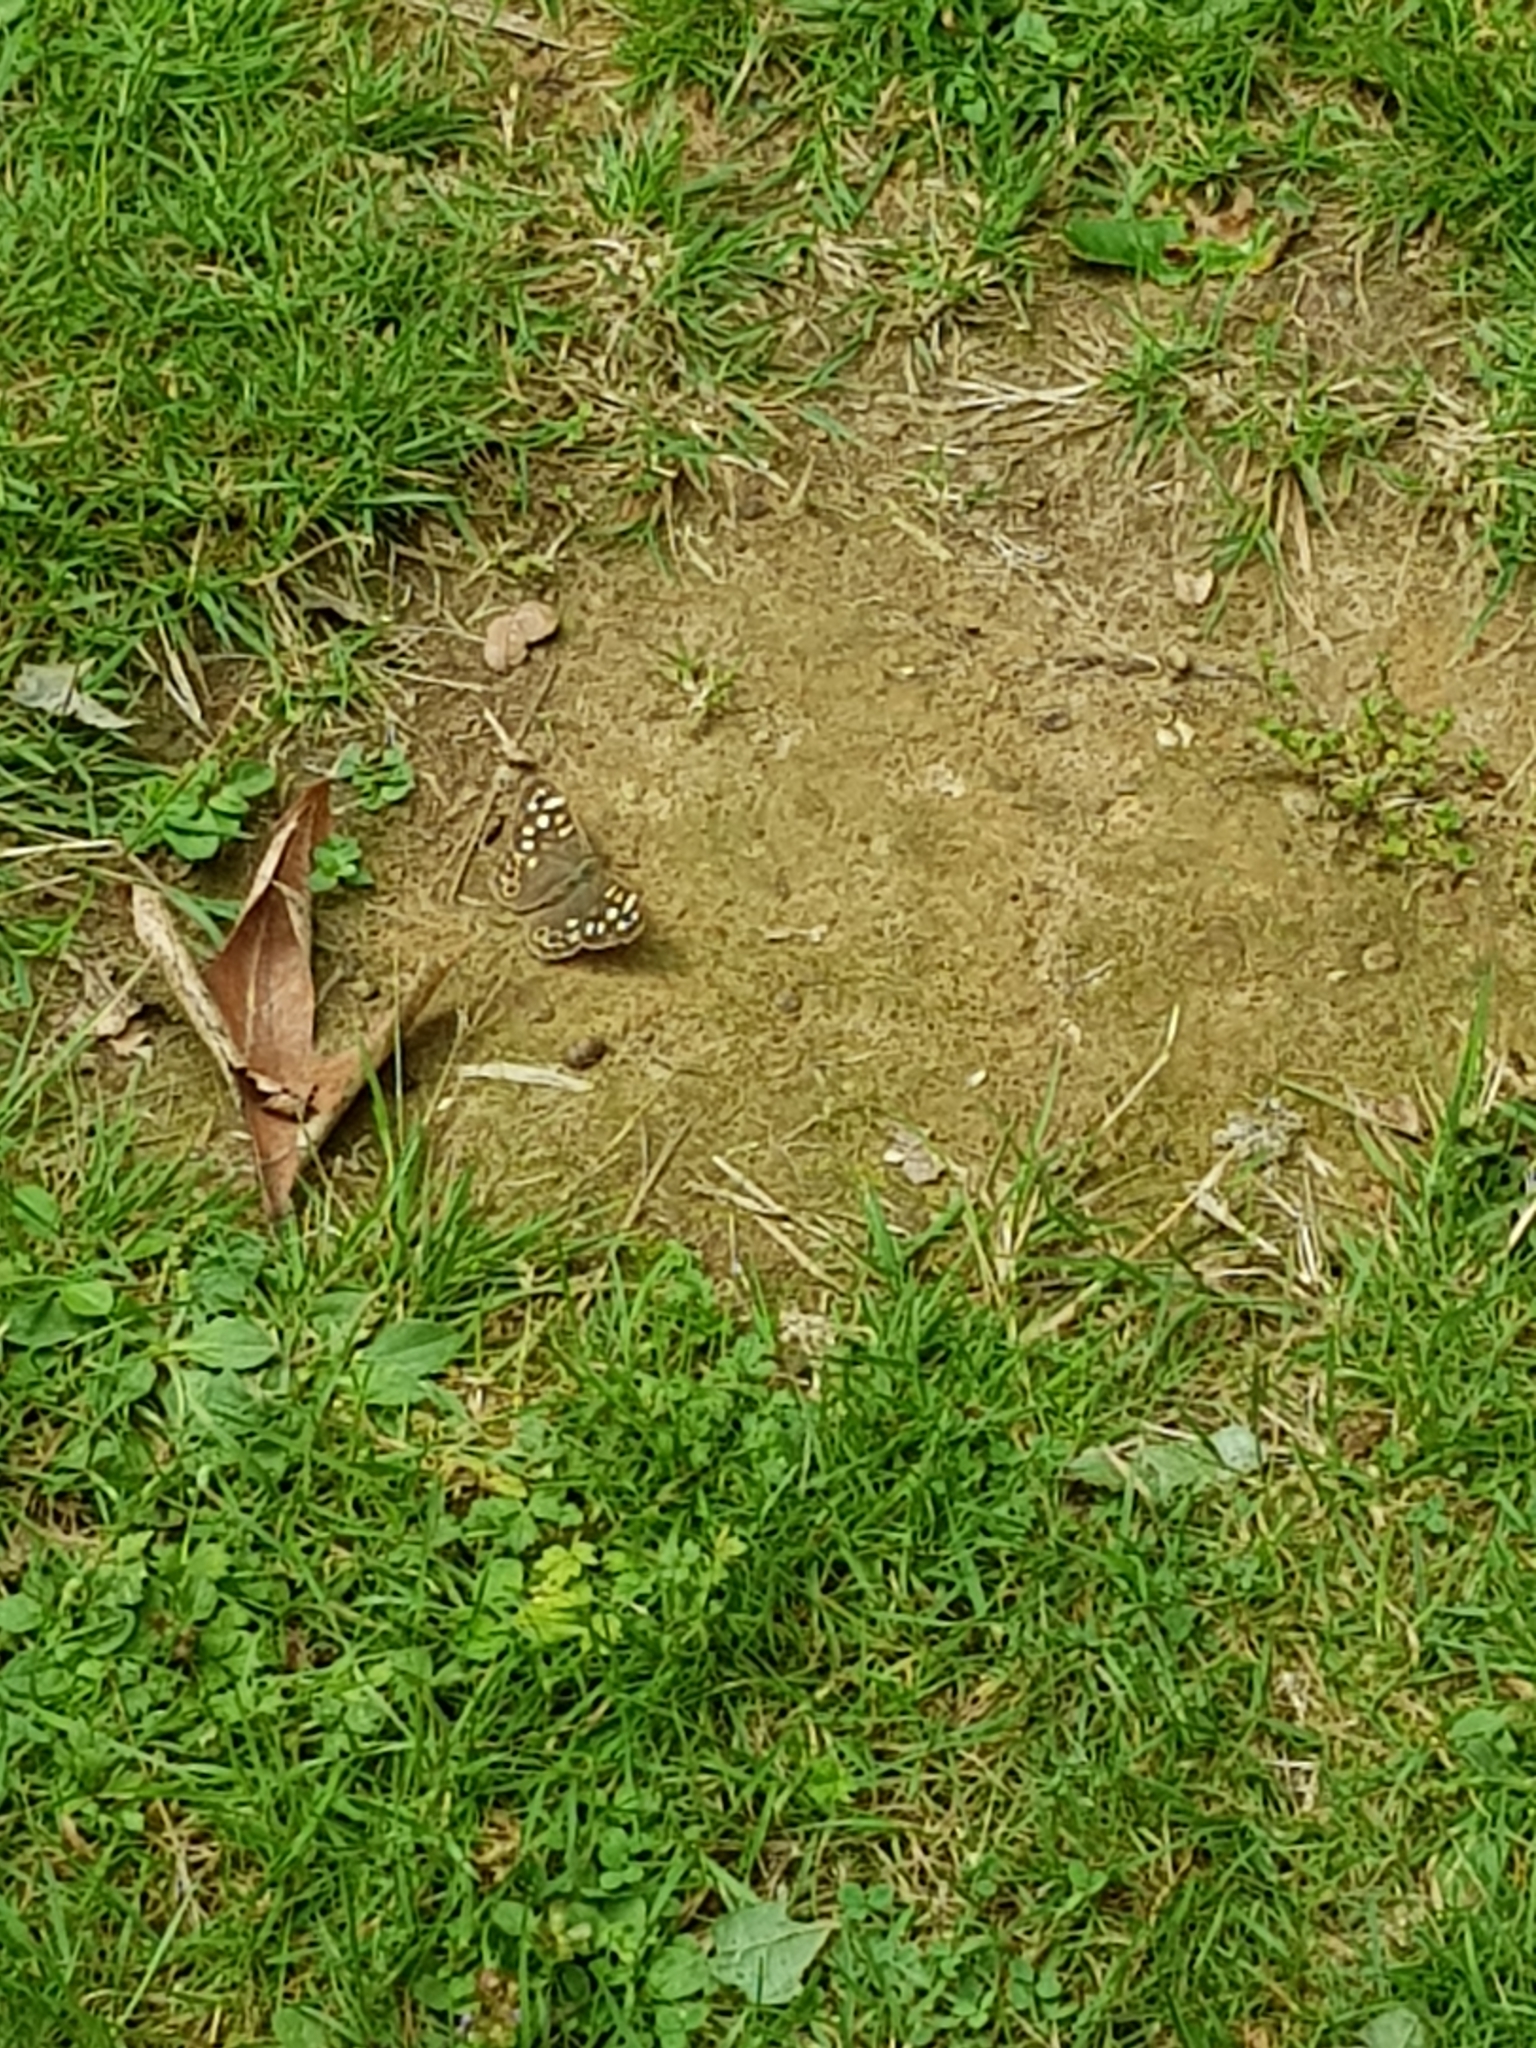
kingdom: Animalia
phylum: Arthropoda
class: Insecta
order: Lepidoptera
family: Nymphalidae
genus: Pararge
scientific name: Pararge aegeria
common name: Speckled wood
